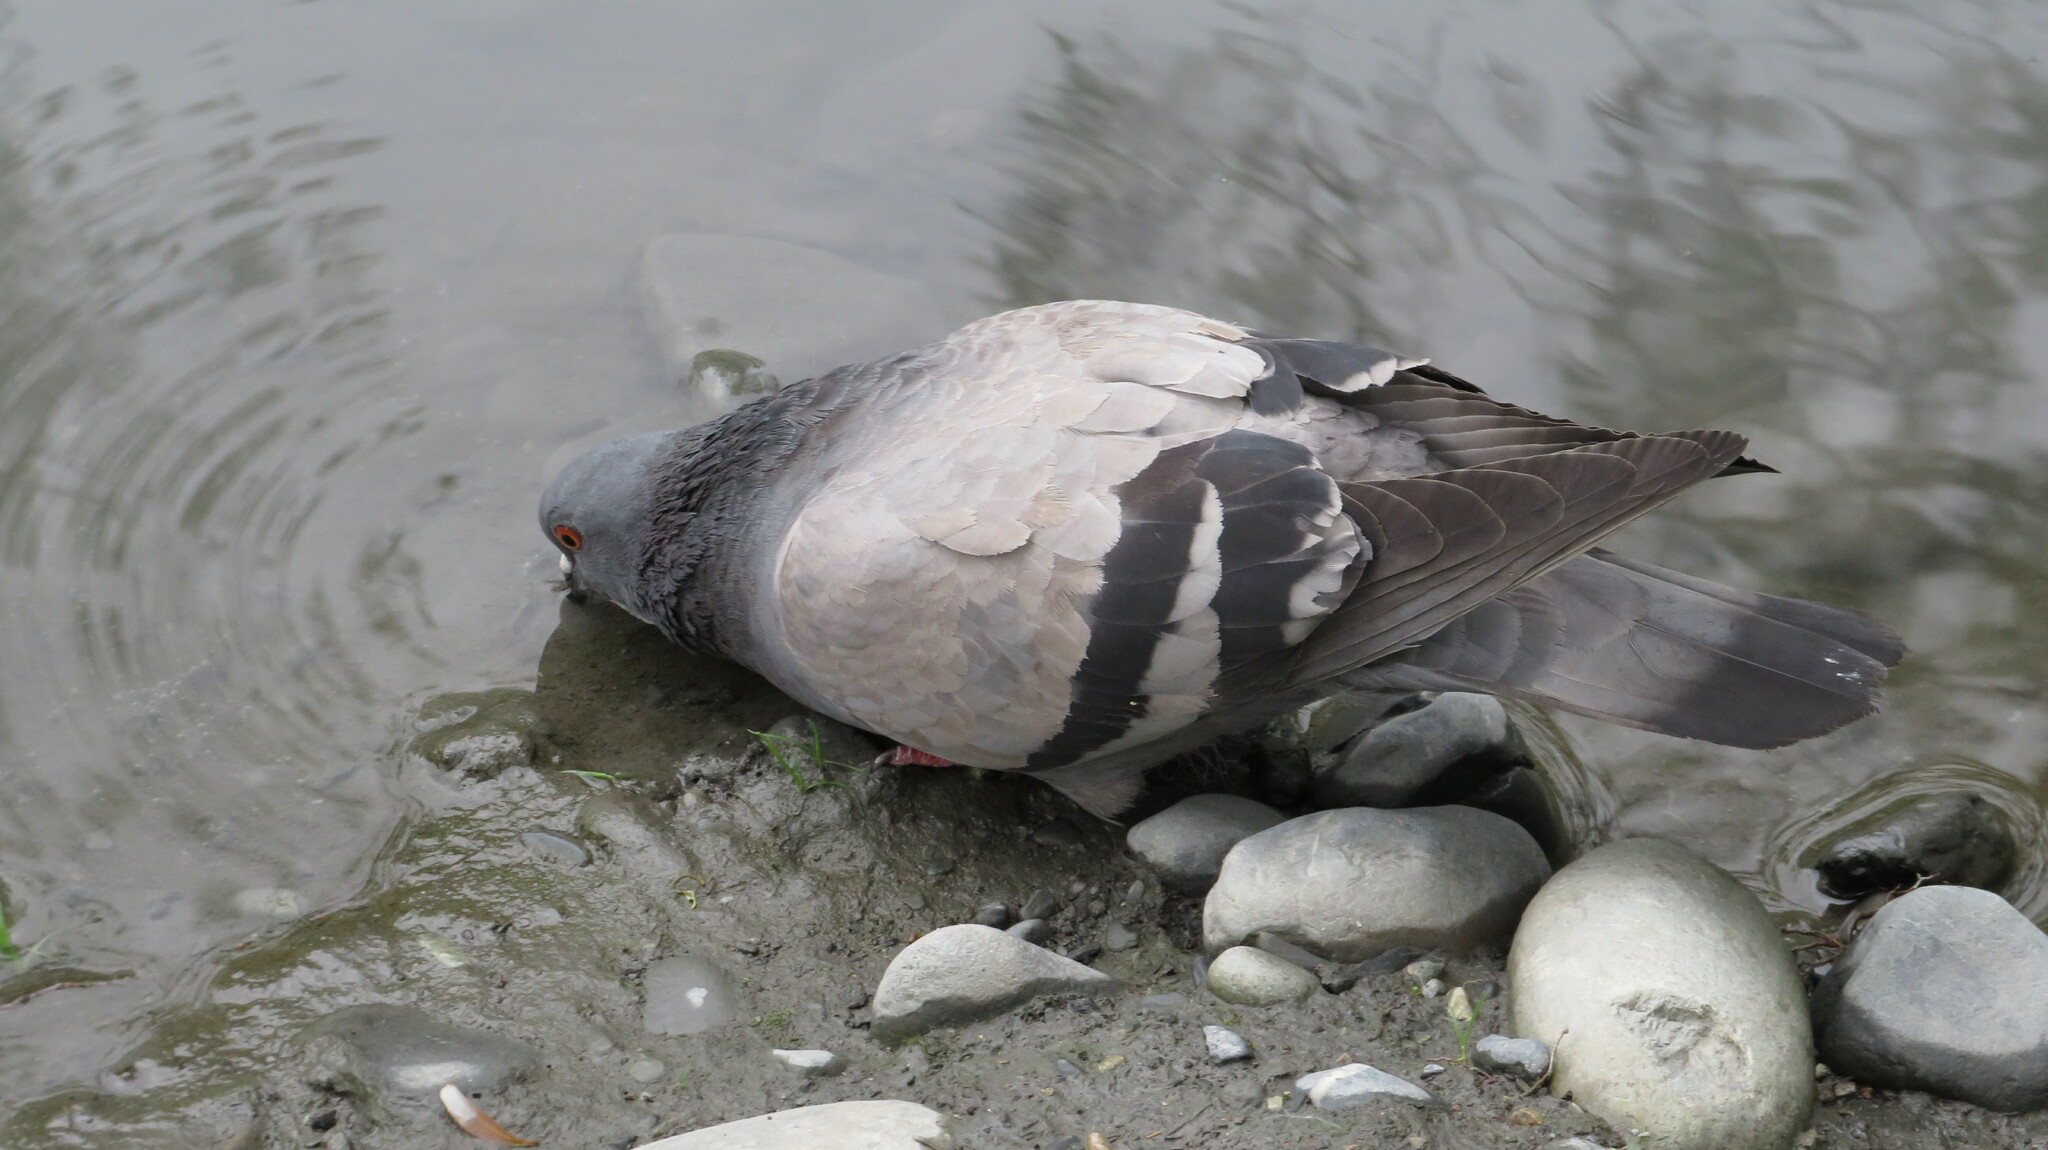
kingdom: Animalia
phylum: Chordata
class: Aves
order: Columbiformes
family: Columbidae
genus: Columba
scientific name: Columba livia
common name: Rock pigeon
